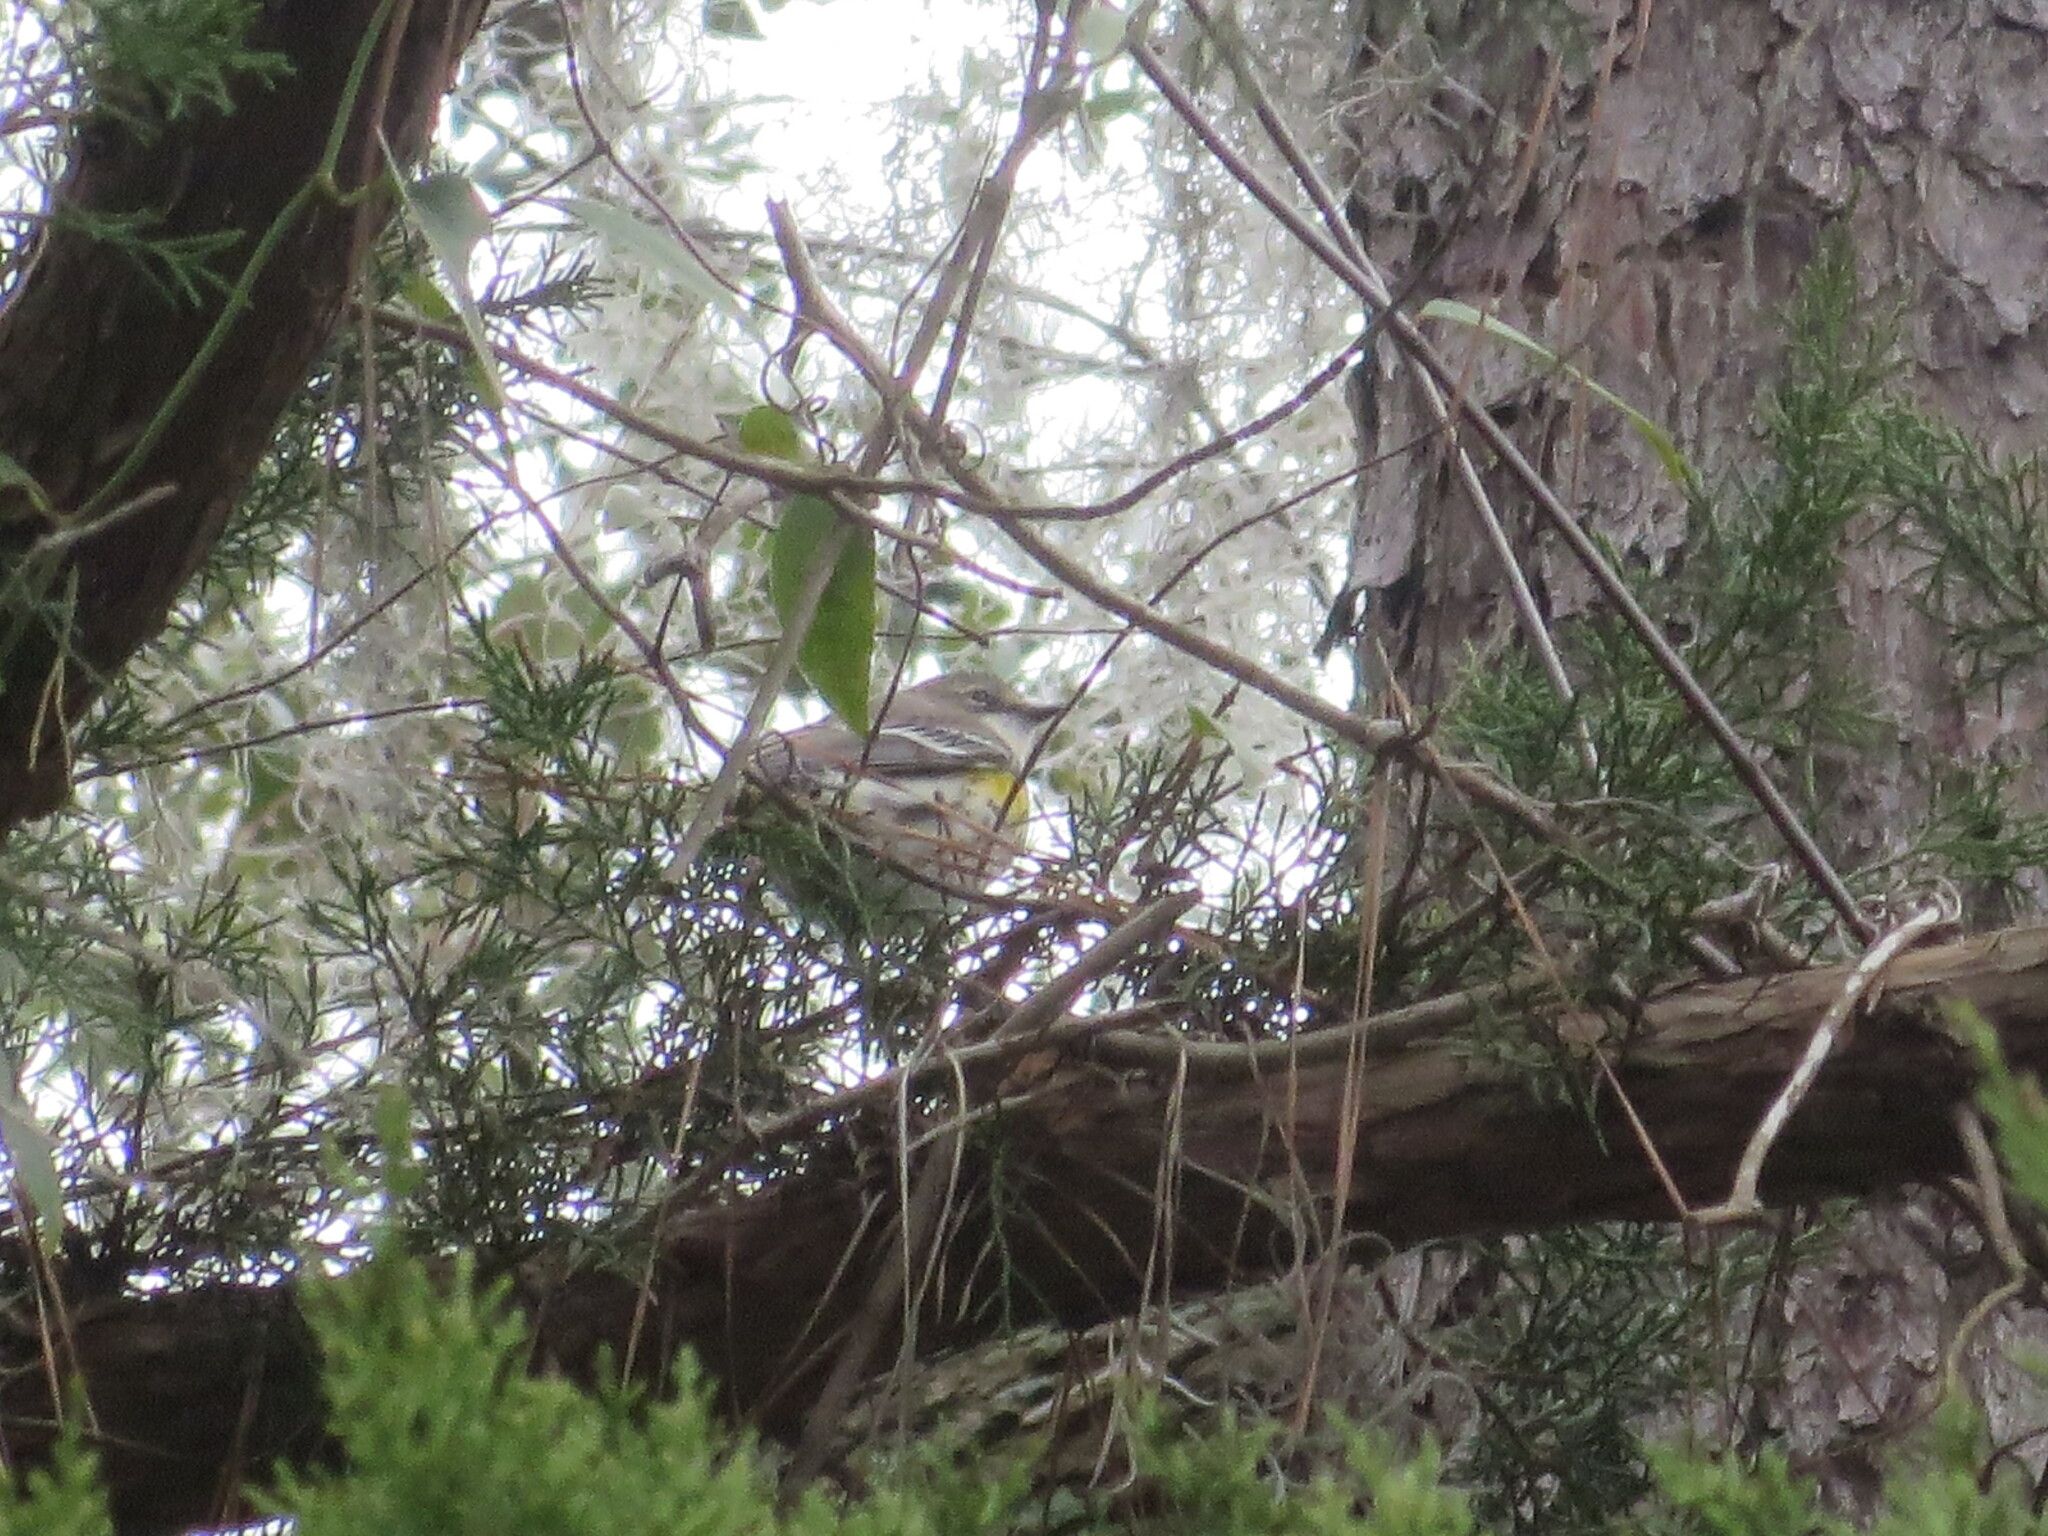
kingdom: Animalia
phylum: Chordata
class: Aves
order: Passeriformes
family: Parulidae
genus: Setophaga
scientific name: Setophaga coronata
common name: Myrtle warbler
